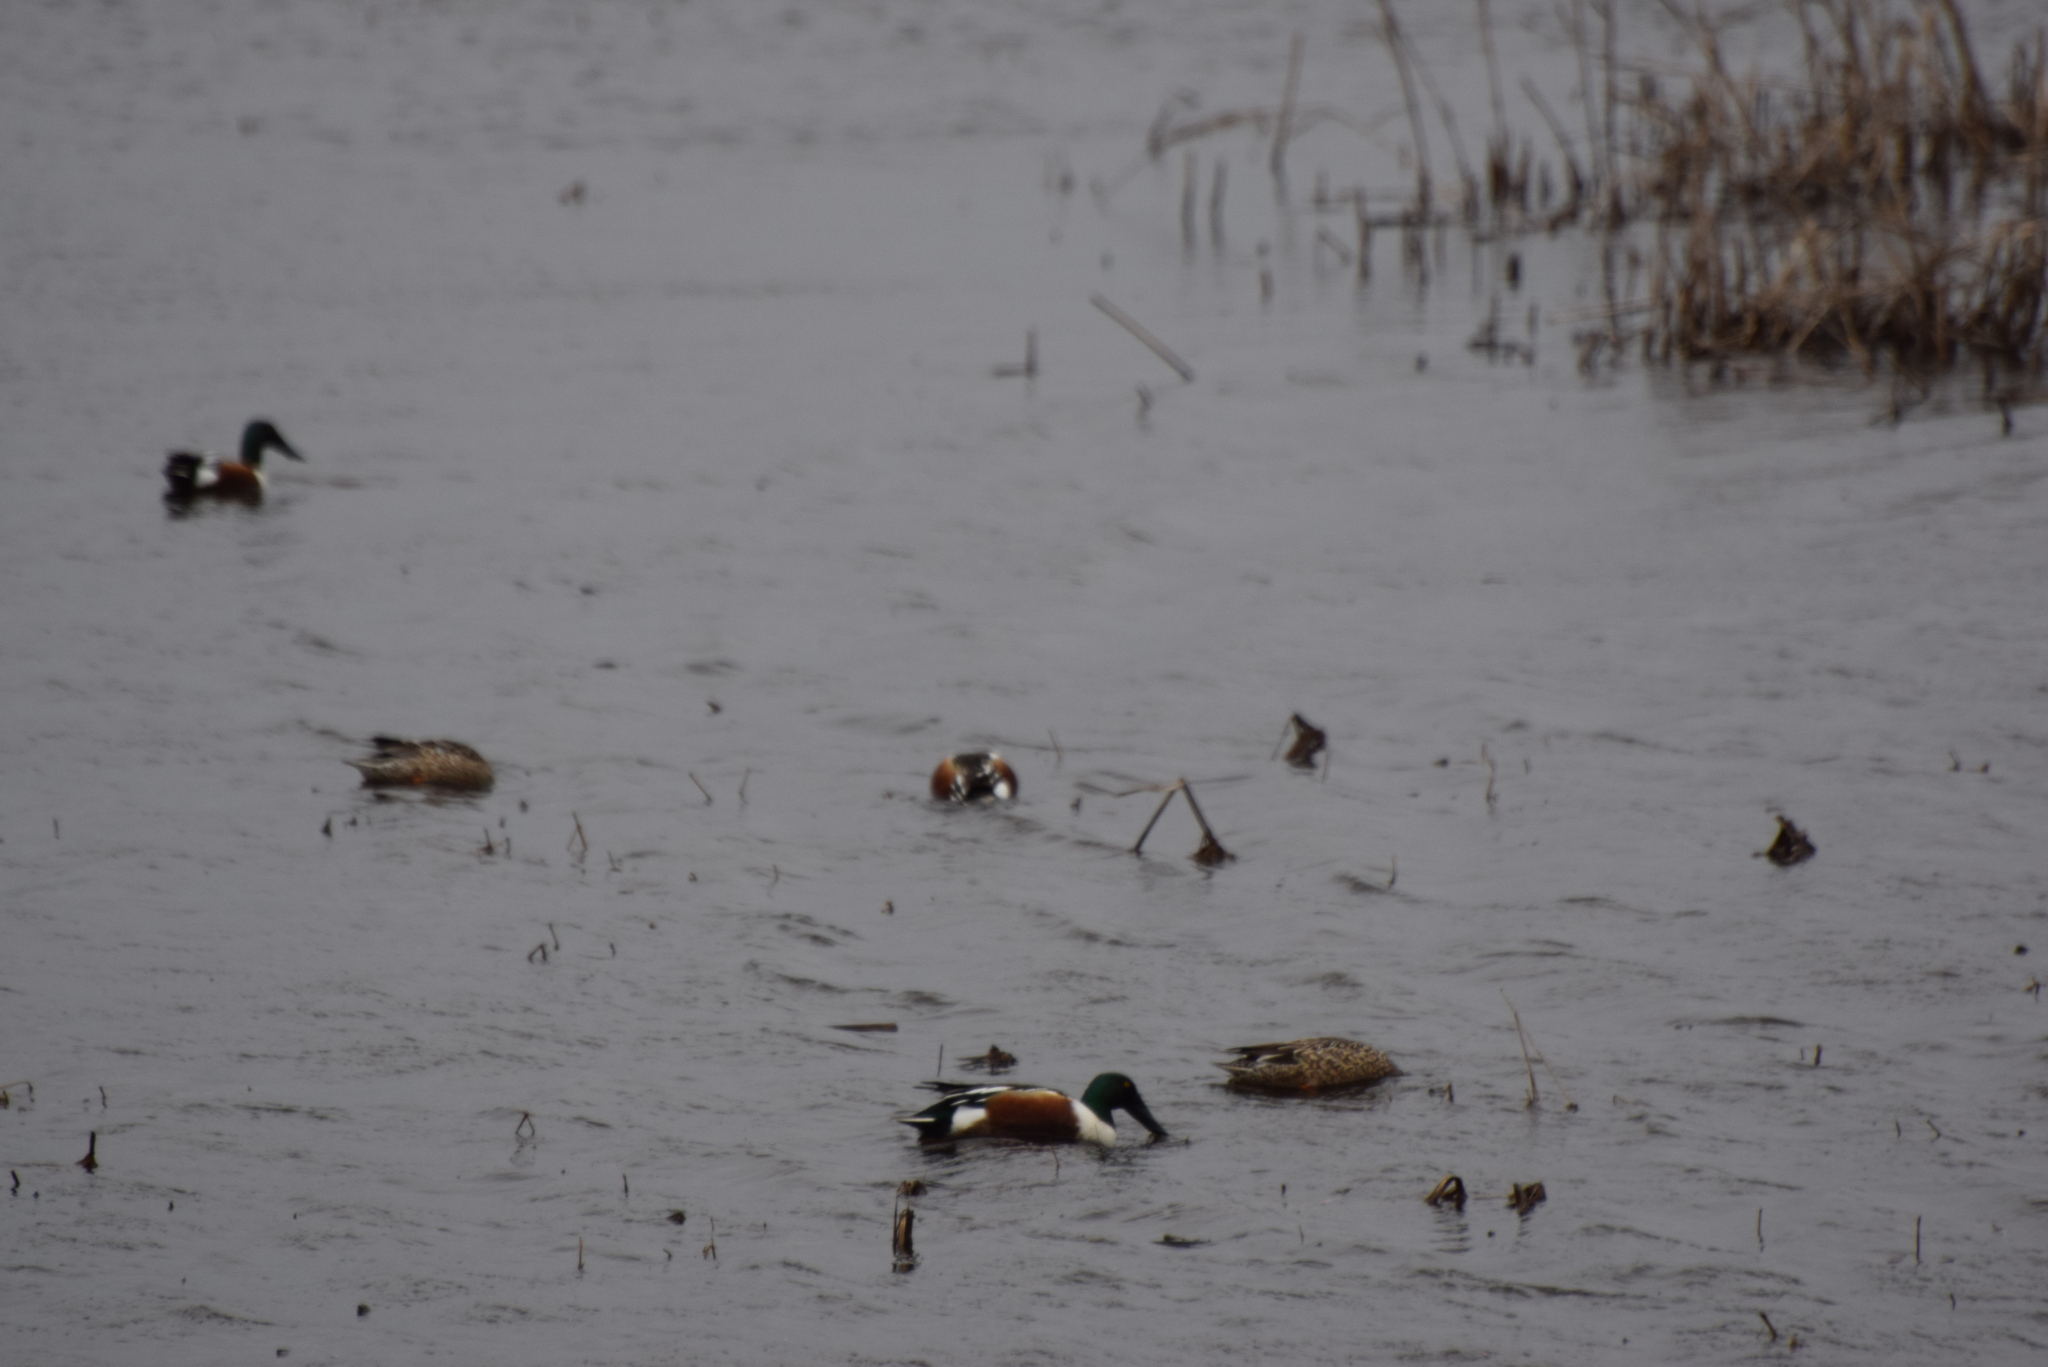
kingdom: Animalia
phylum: Chordata
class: Aves
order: Anseriformes
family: Anatidae
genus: Spatula
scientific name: Spatula clypeata
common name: Northern shoveler
